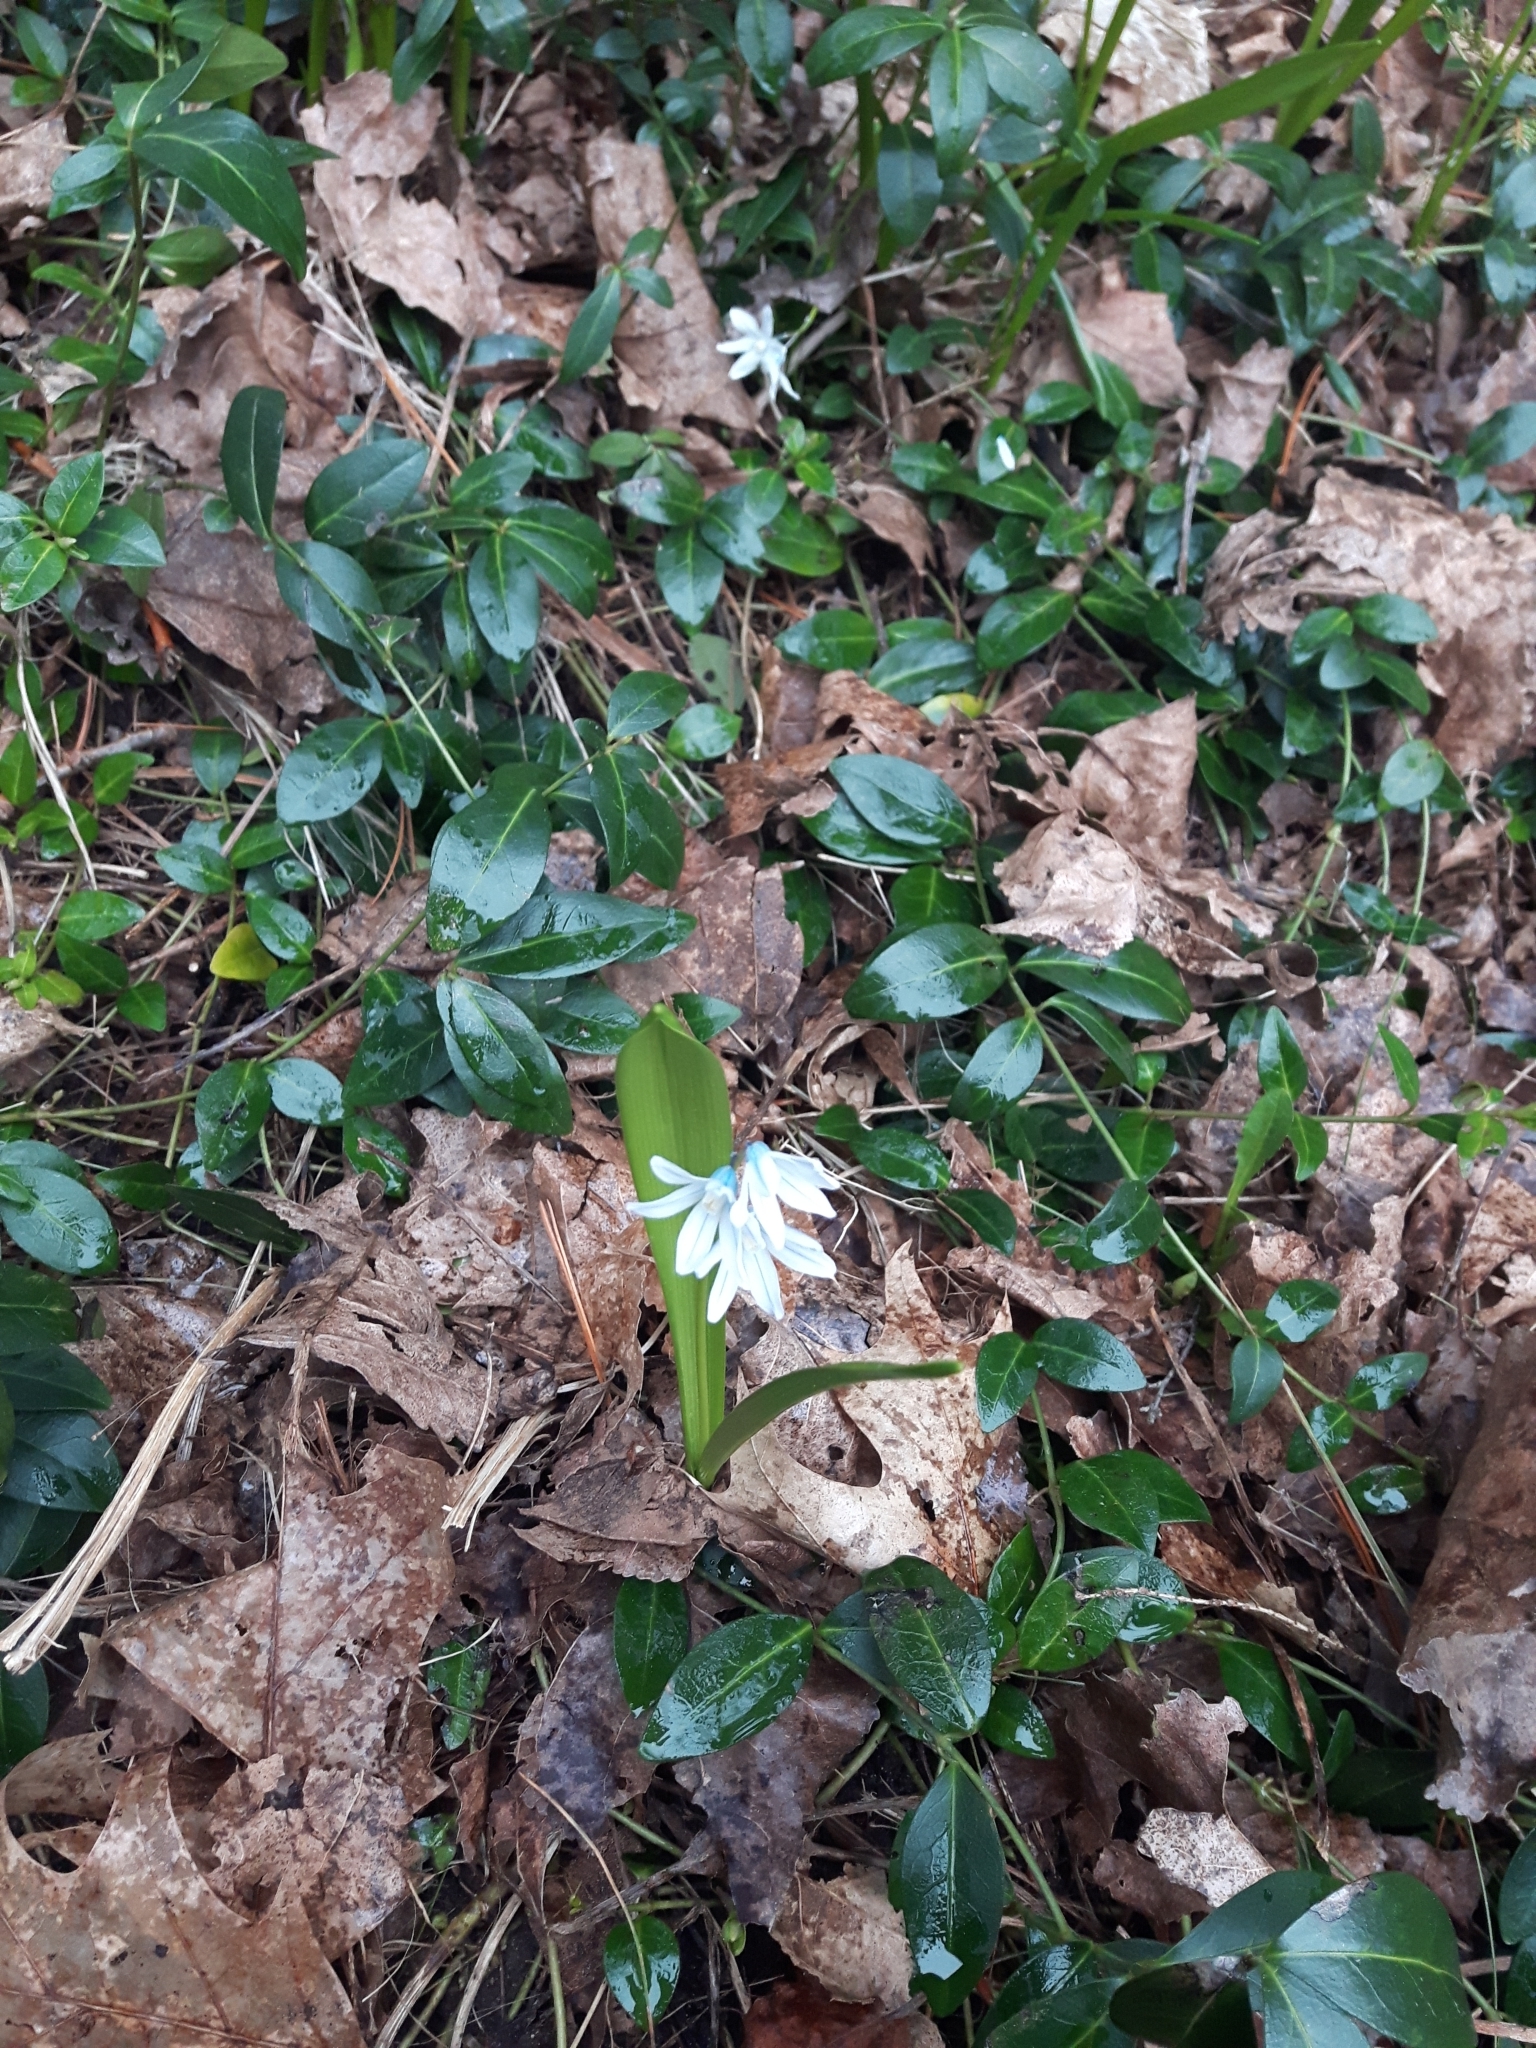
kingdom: Plantae
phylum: Tracheophyta
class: Liliopsida
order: Asparagales
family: Asparagaceae
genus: Puschkinia
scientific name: Puschkinia scilloides
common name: Striped squill
